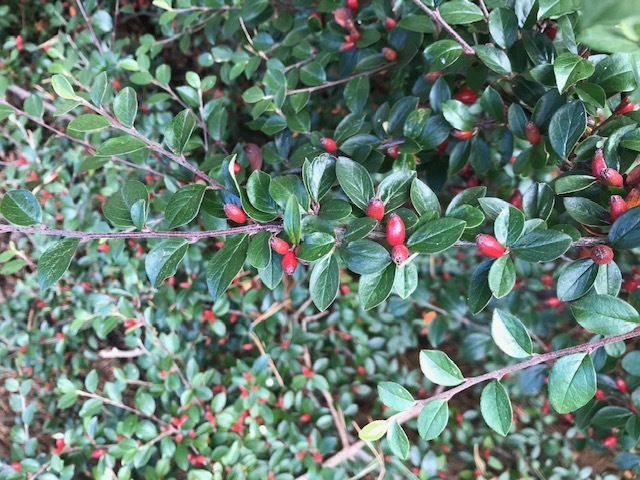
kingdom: Plantae
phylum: Tracheophyta
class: Magnoliopsida
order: Rosales
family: Rosaceae
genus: Cotoneaster
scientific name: Cotoneaster divaricatus
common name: Spreading cotoneaster
